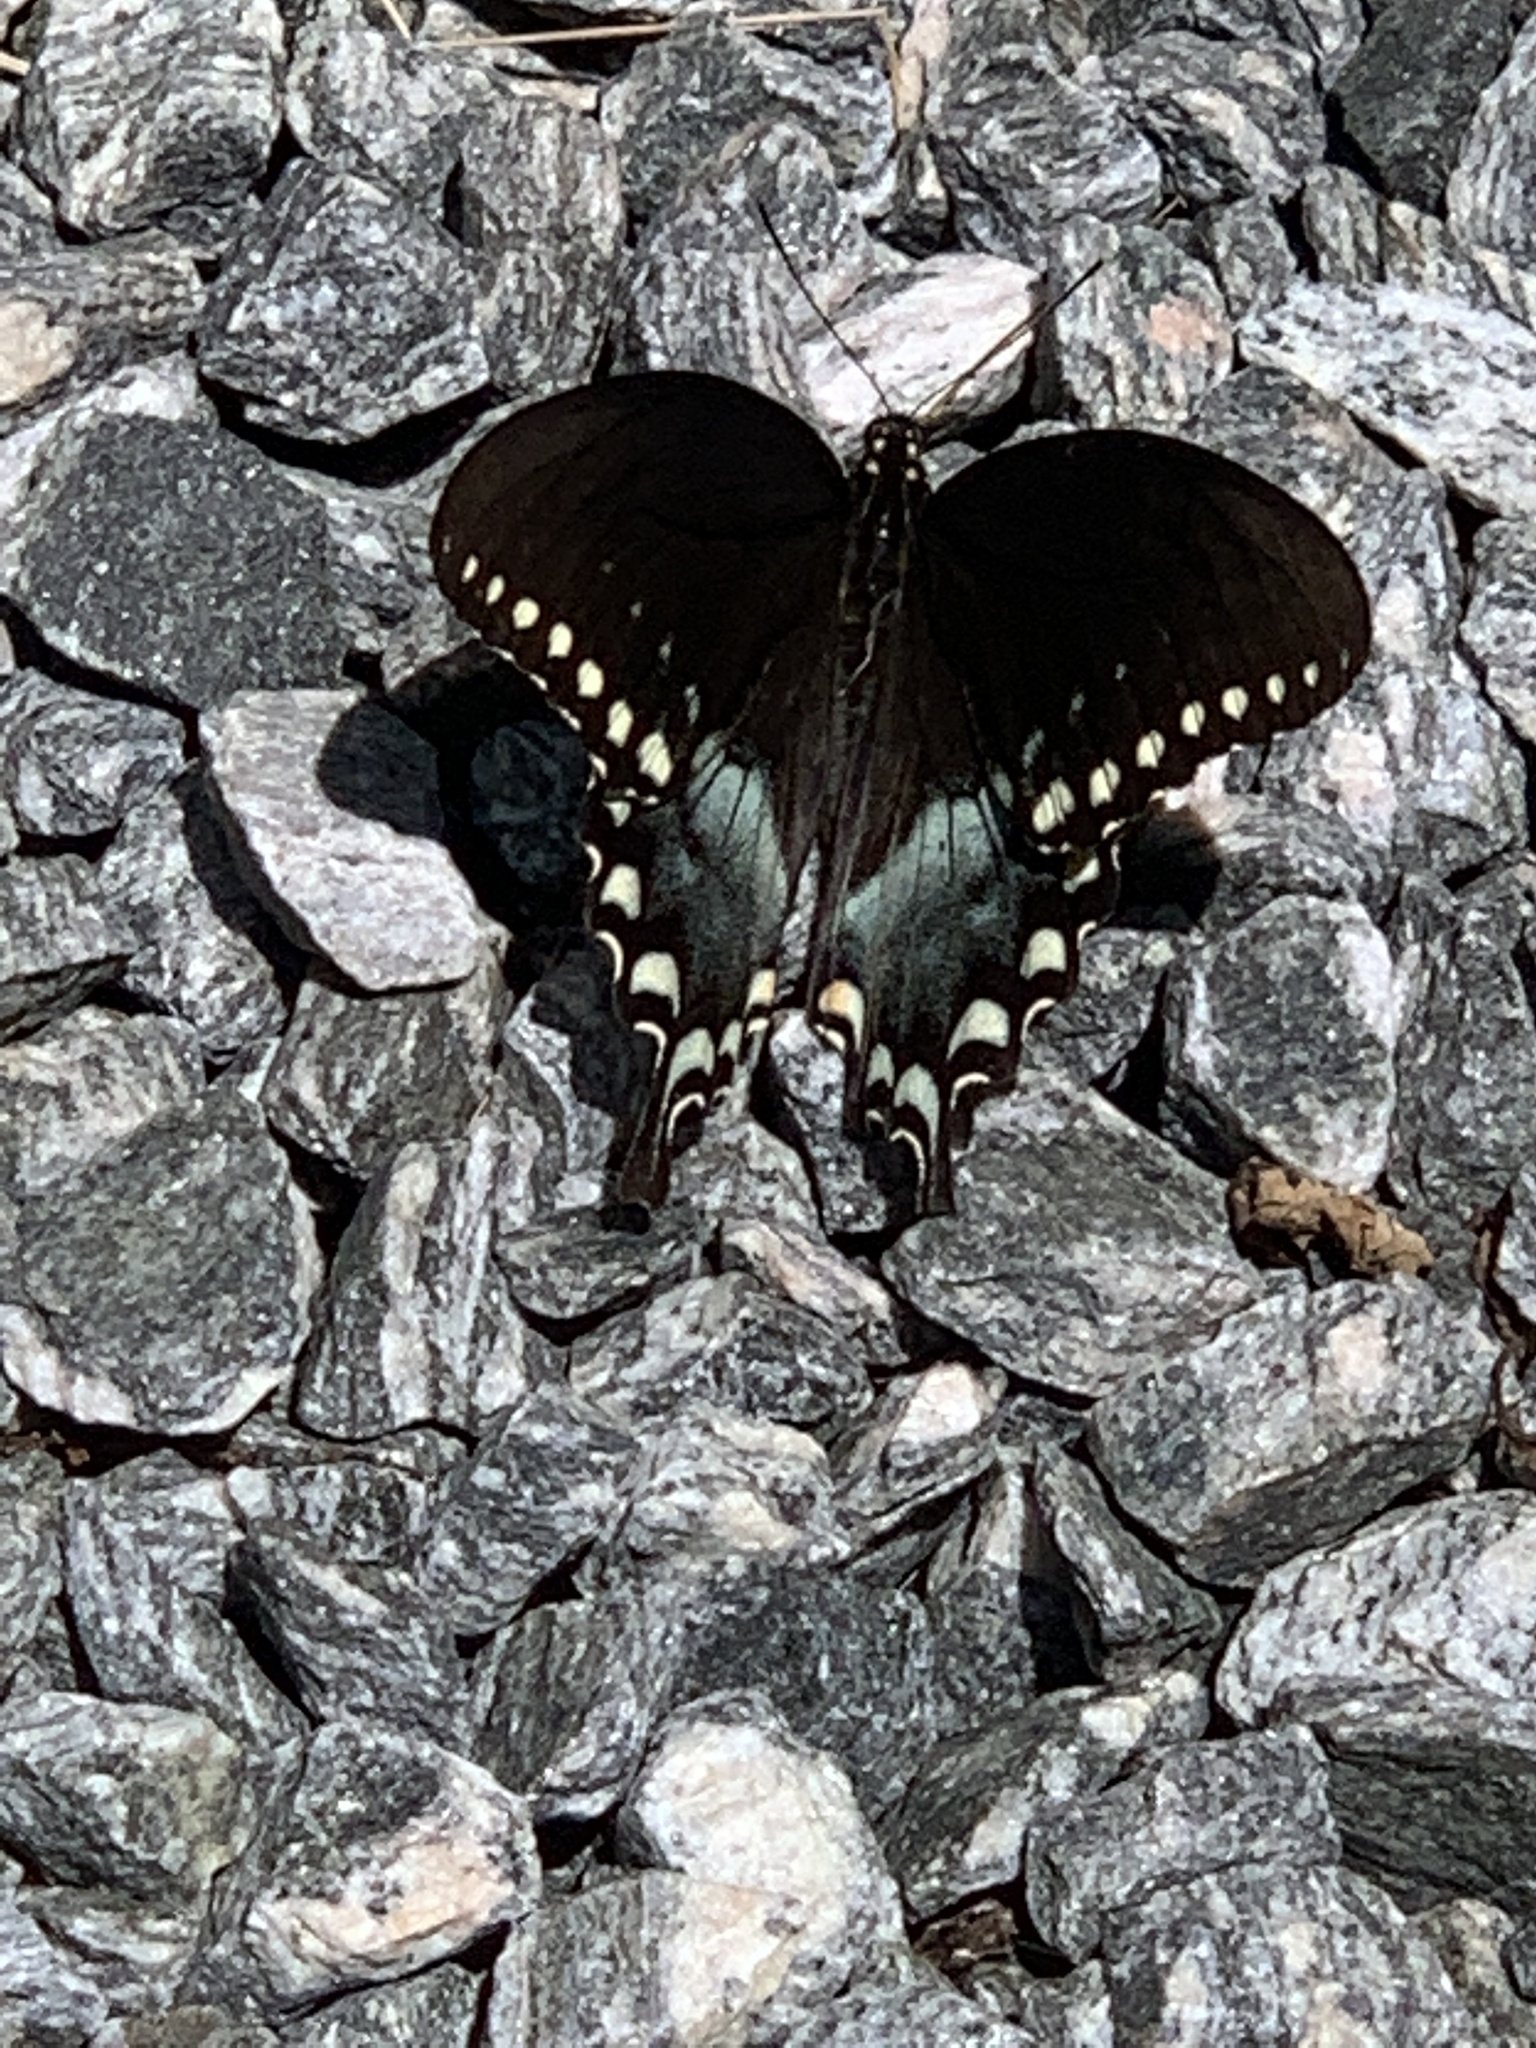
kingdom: Animalia
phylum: Arthropoda
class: Insecta
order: Lepidoptera
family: Papilionidae
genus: Papilio
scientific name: Papilio troilus
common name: Spicebush swallowtail
